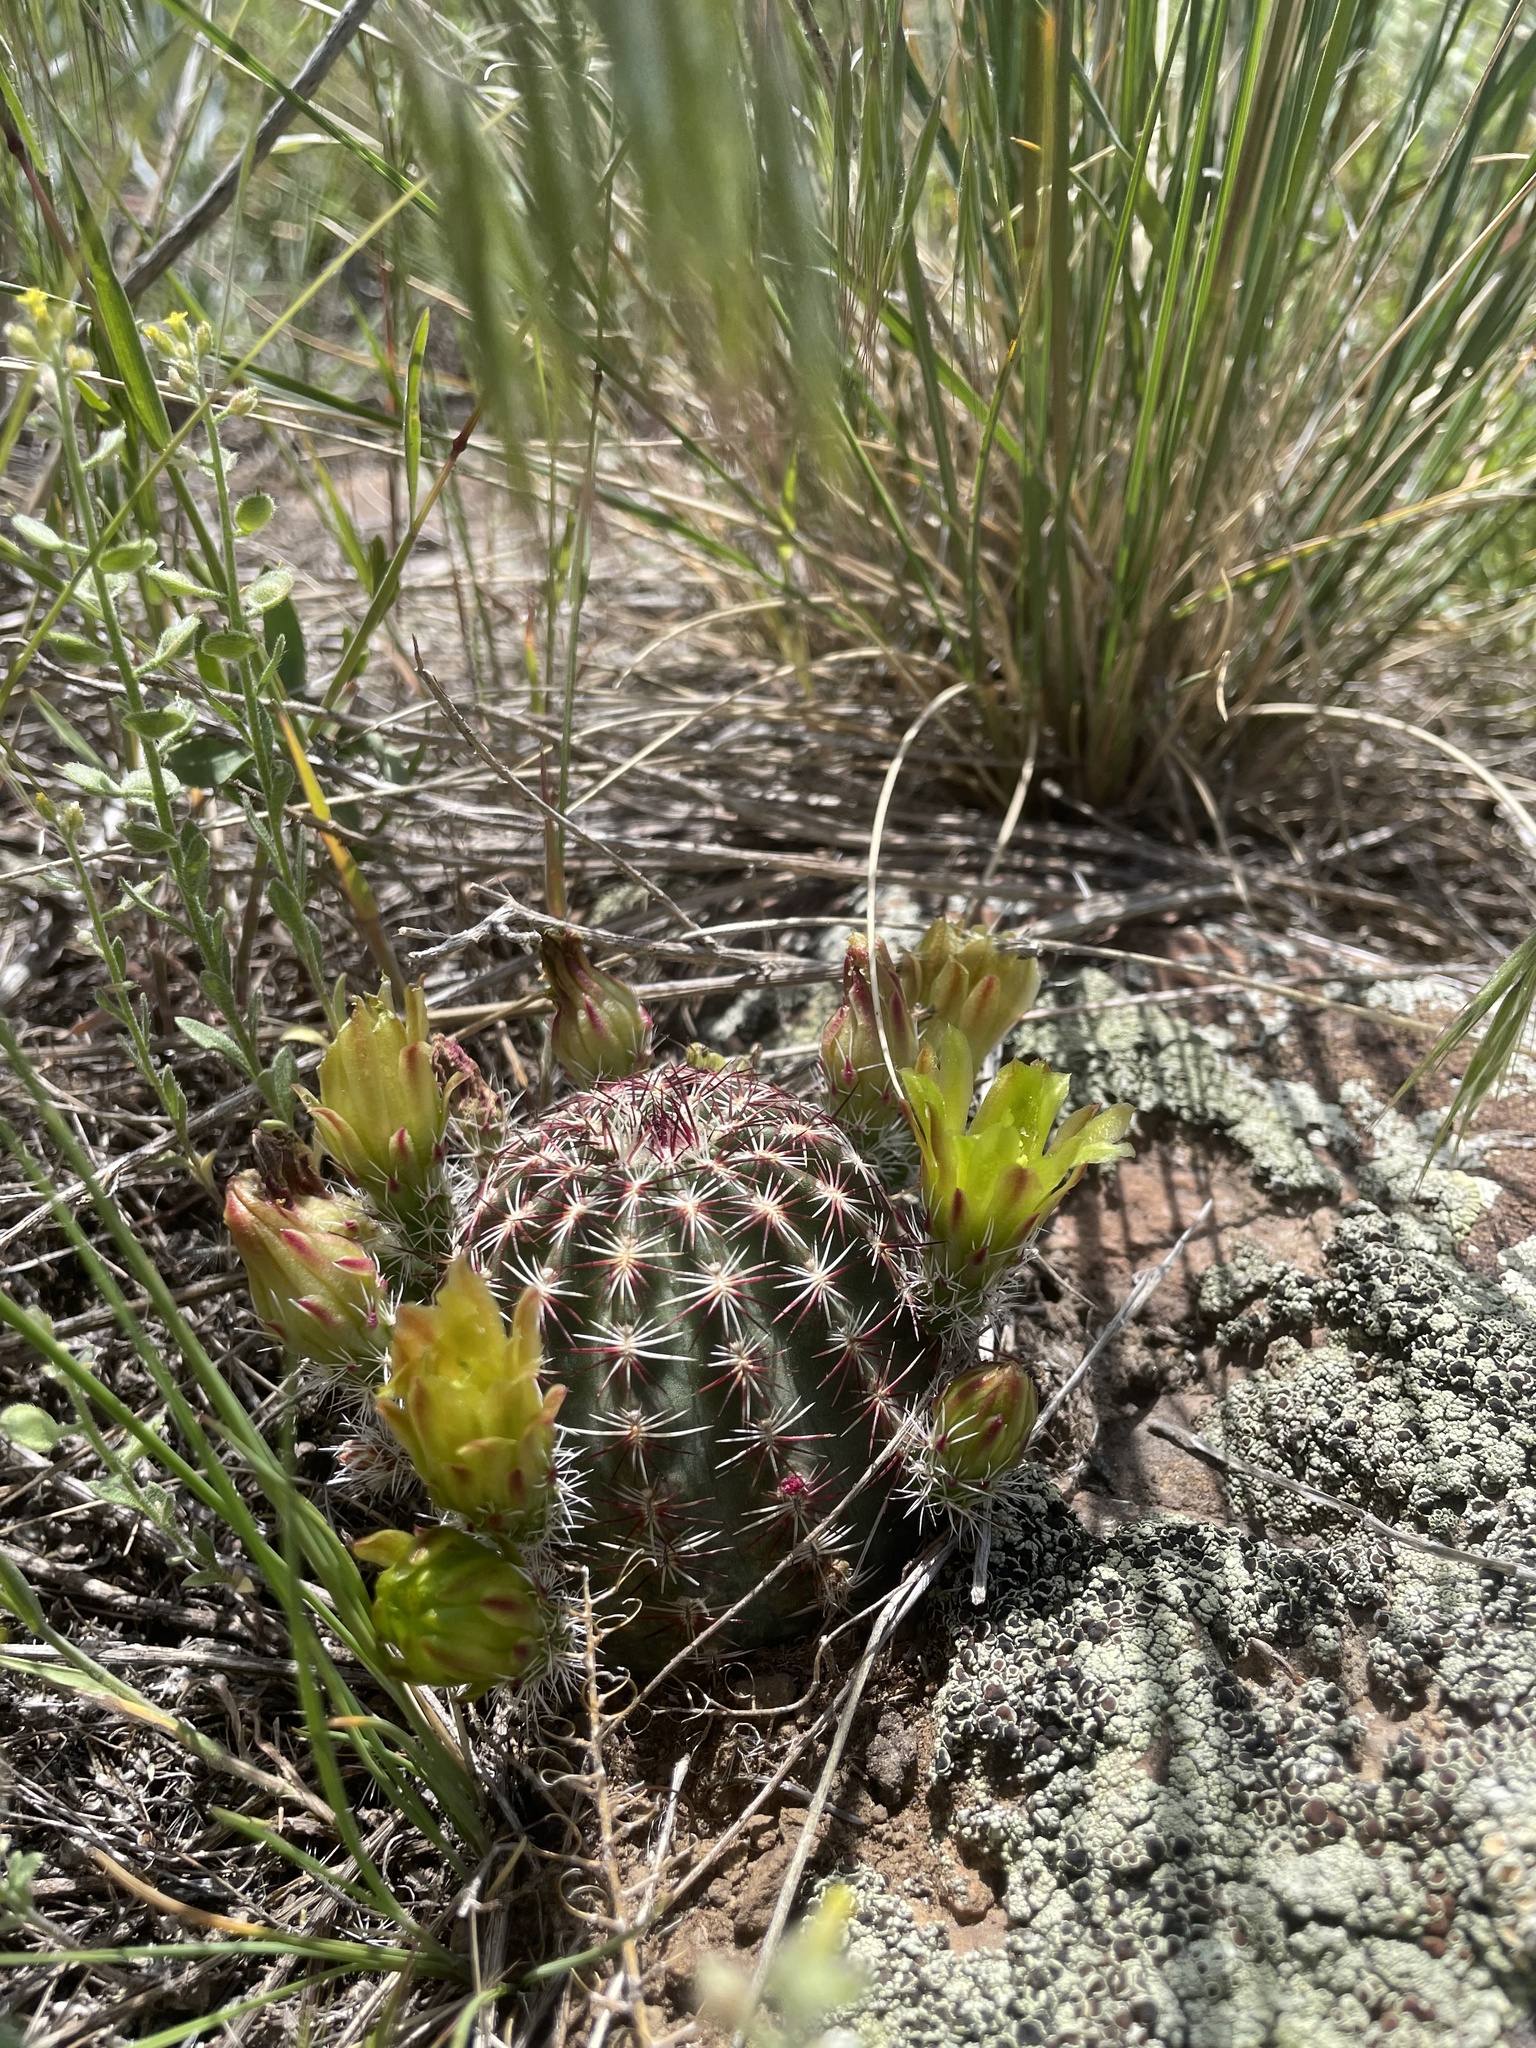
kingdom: Plantae
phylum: Tracheophyta
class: Magnoliopsida
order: Caryophyllales
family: Cactaceae
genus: Echinocereus
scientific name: Echinocereus viridiflorus
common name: Nylon hedgehog cactus
